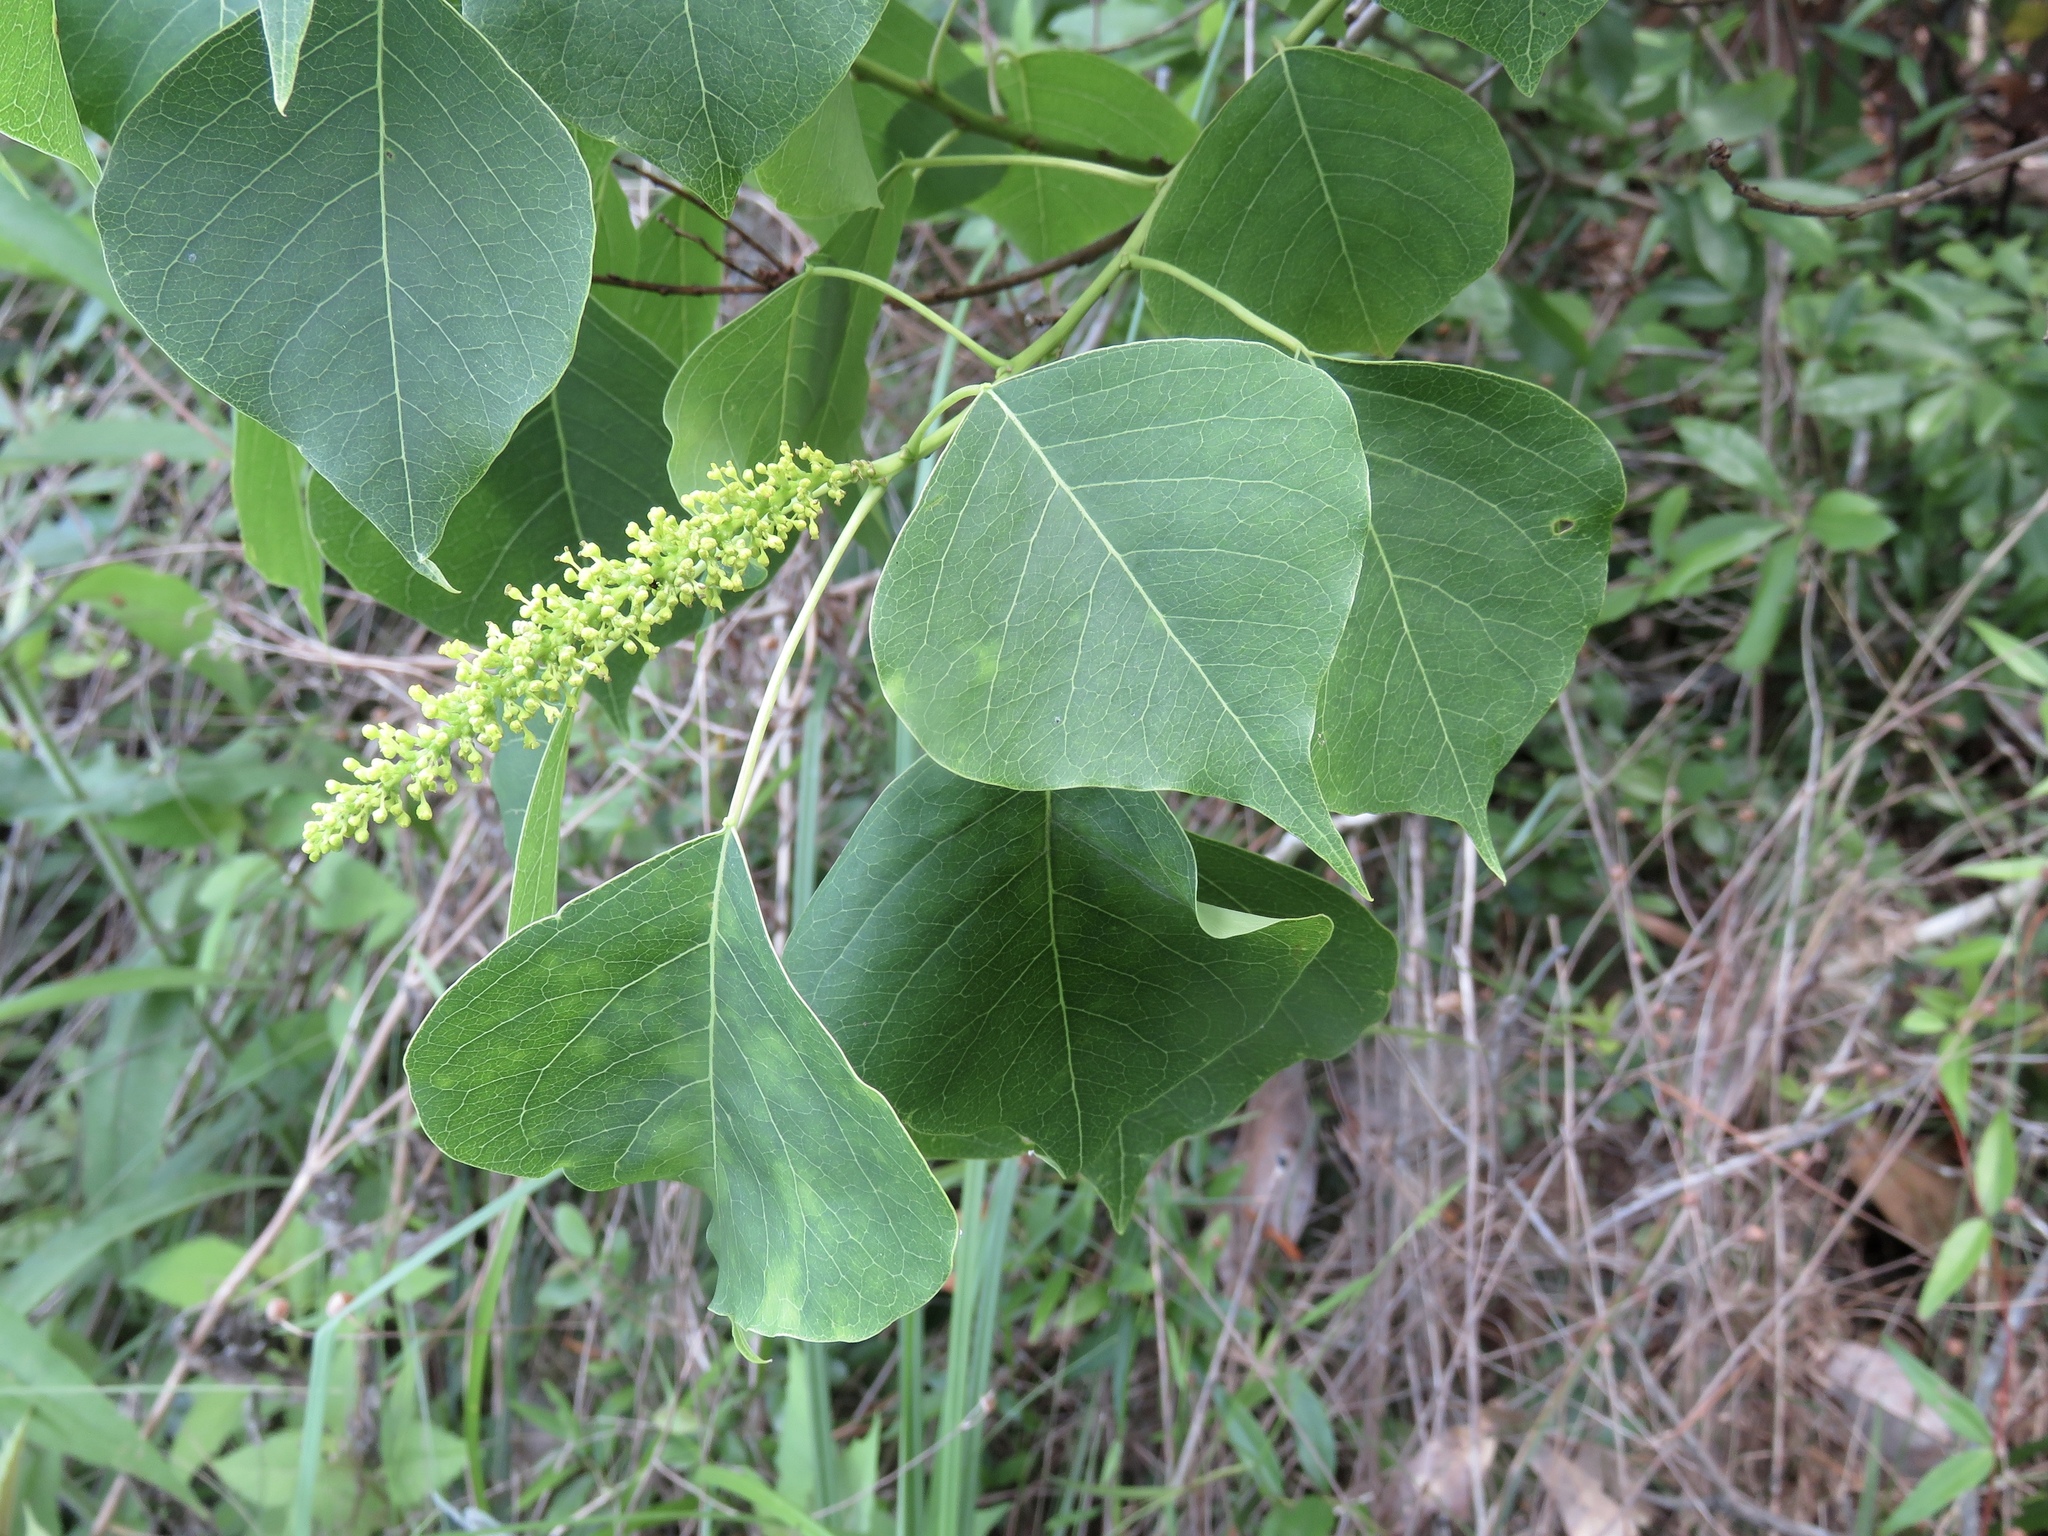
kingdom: Plantae
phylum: Tracheophyta
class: Magnoliopsida
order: Malpighiales
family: Euphorbiaceae
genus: Triadica
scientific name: Triadica sebifera
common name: Chinese tallow
